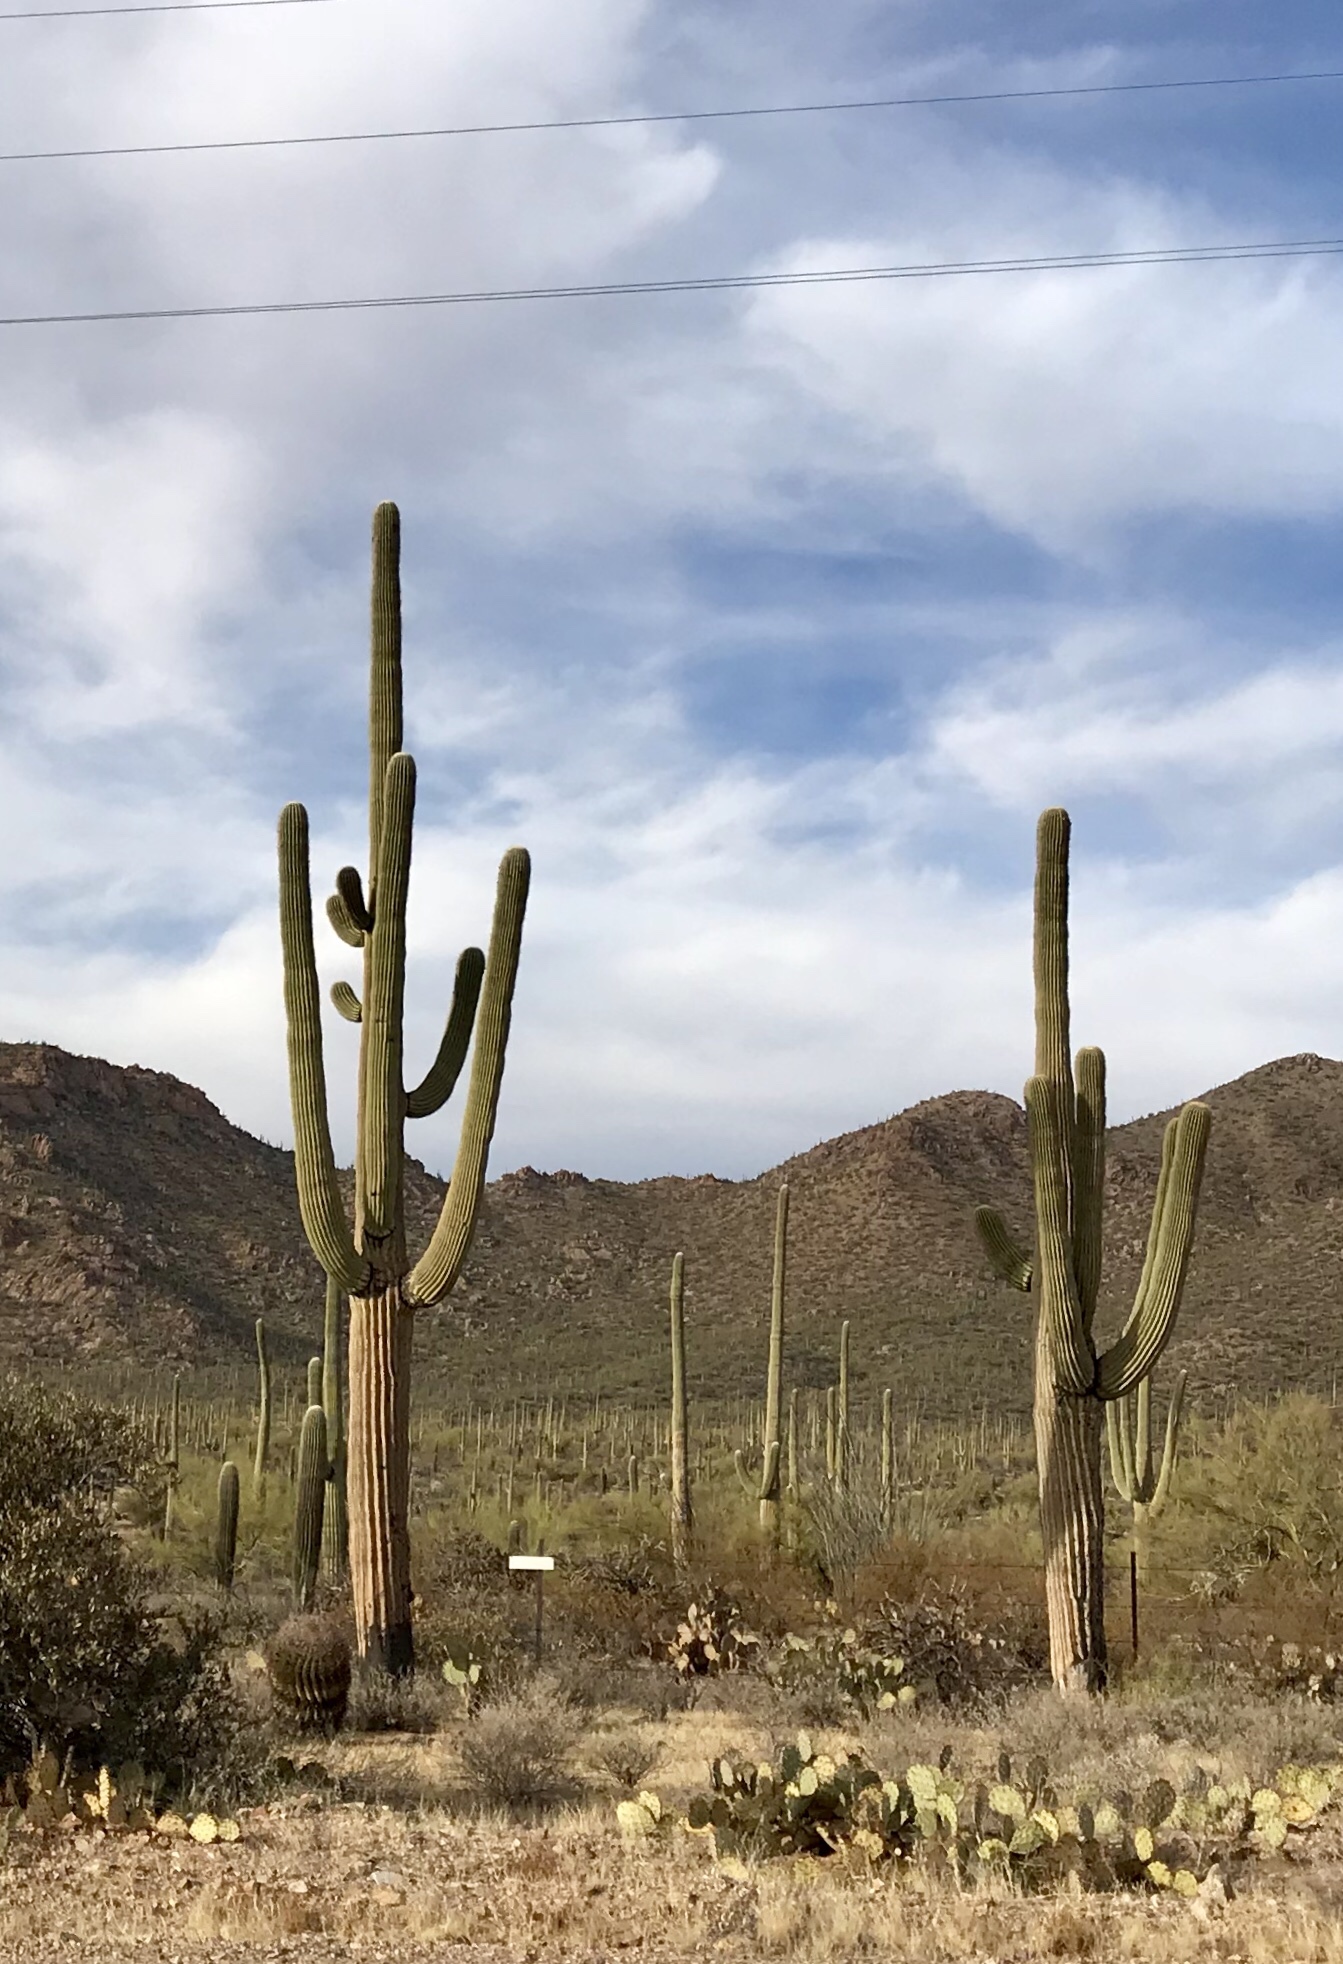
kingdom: Plantae
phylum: Tracheophyta
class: Magnoliopsida
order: Caryophyllales
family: Cactaceae
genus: Carnegiea
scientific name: Carnegiea gigantea
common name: Saguaro
